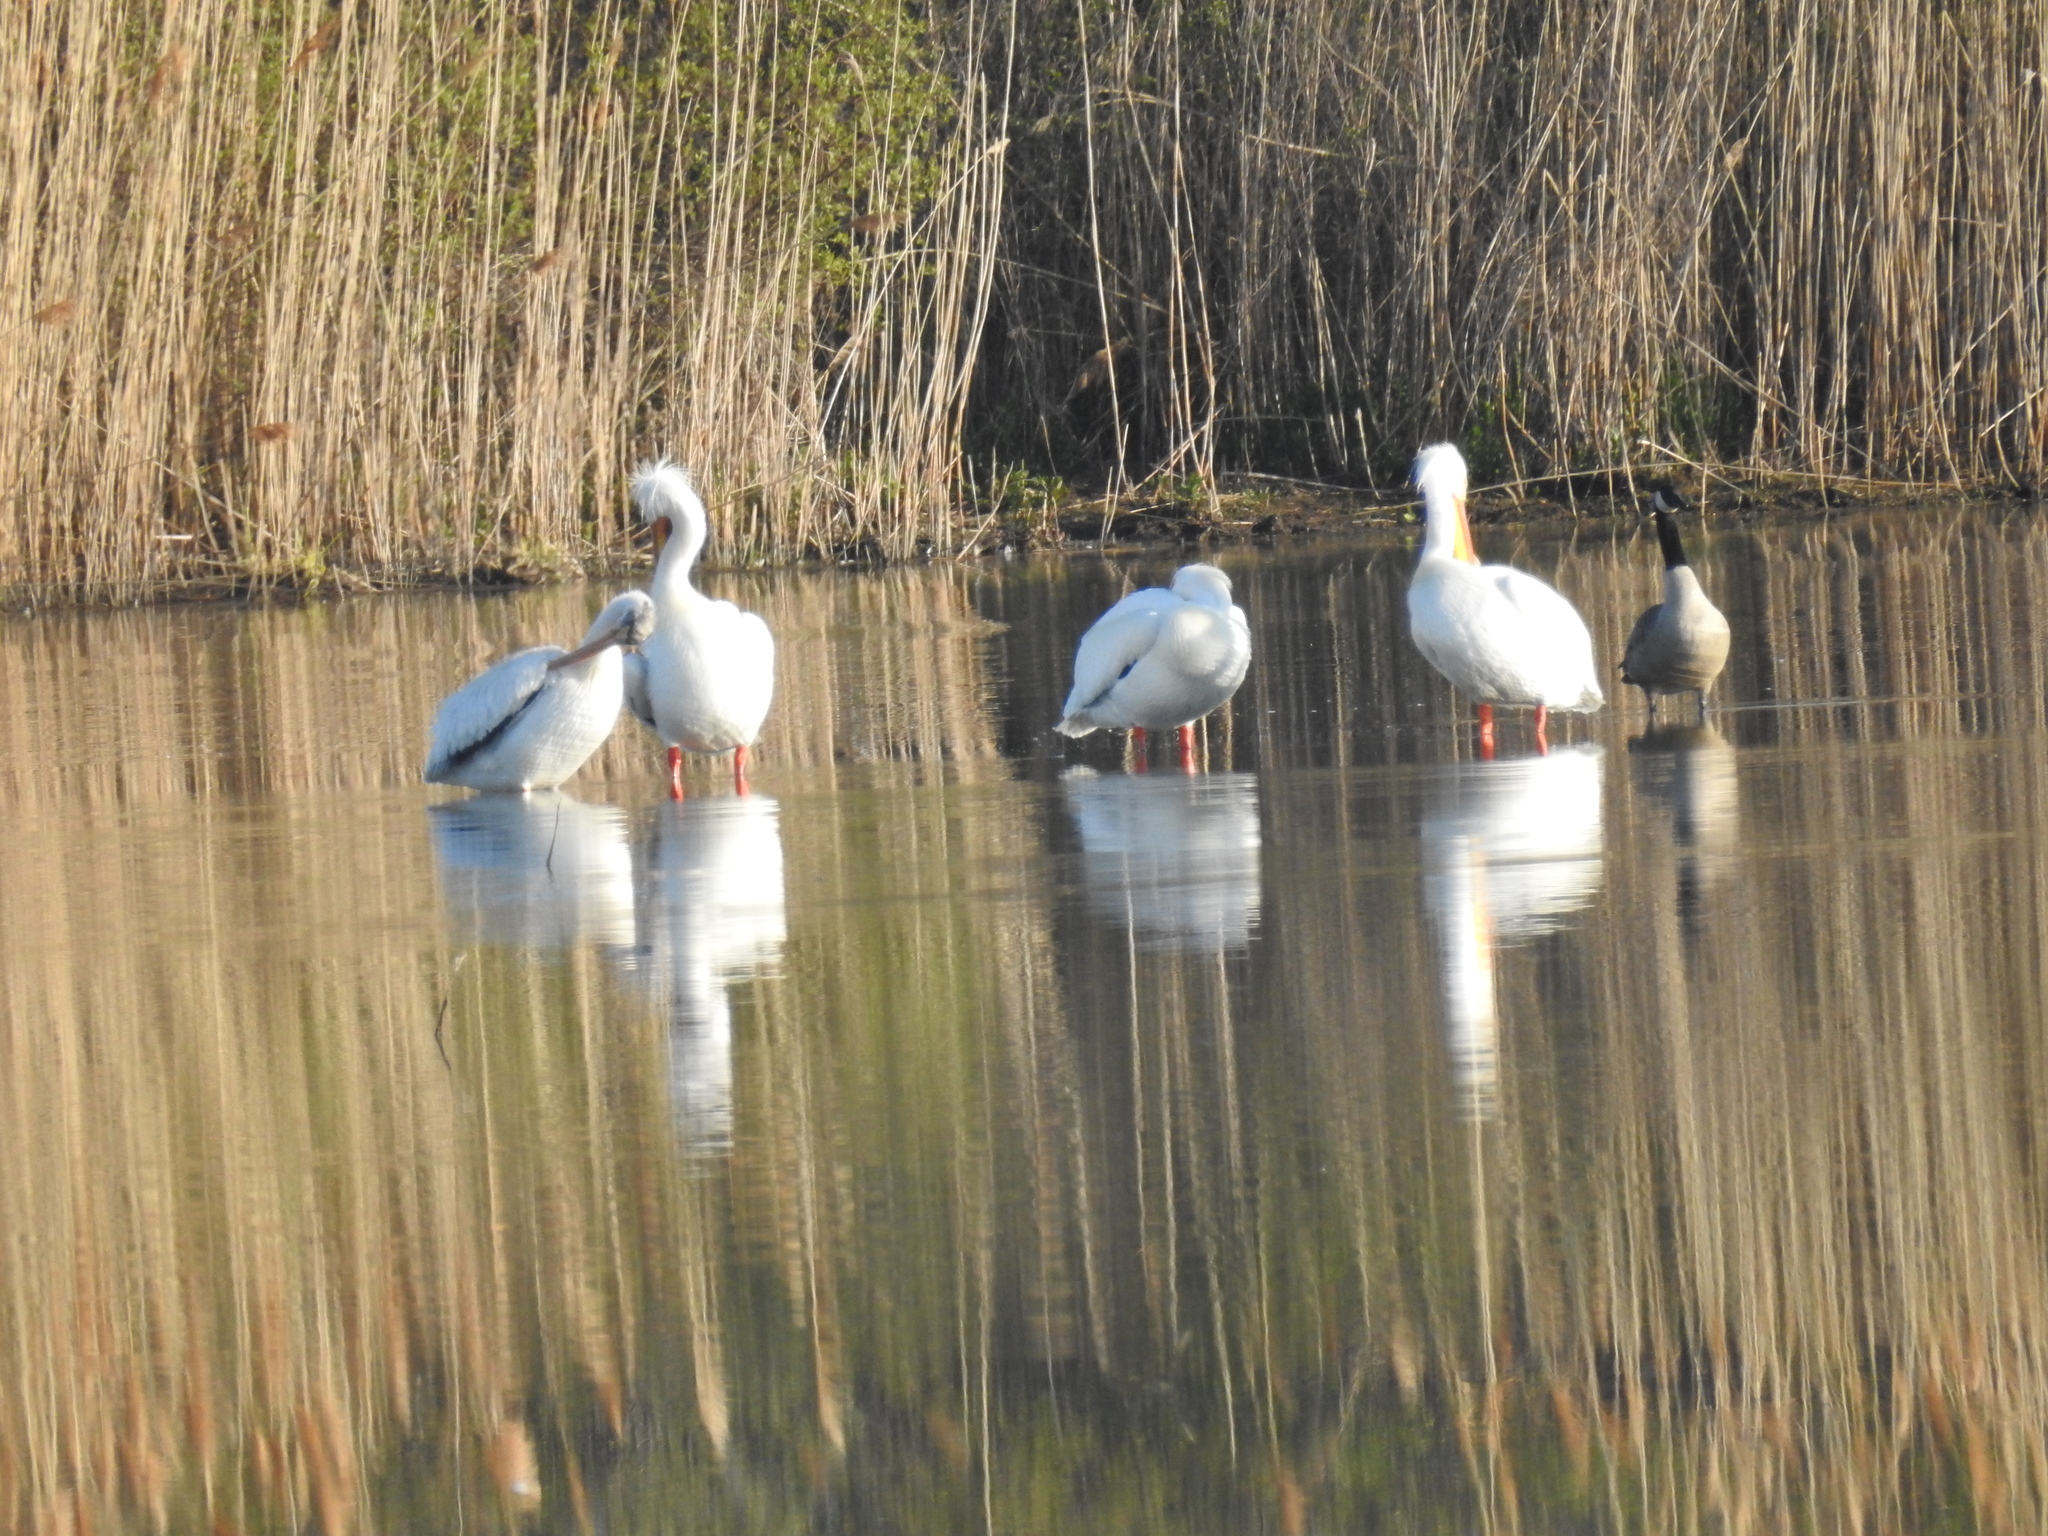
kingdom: Animalia
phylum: Chordata
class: Aves
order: Pelecaniformes
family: Pelecanidae
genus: Pelecanus
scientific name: Pelecanus erythrorhynchos
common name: American white pelican
